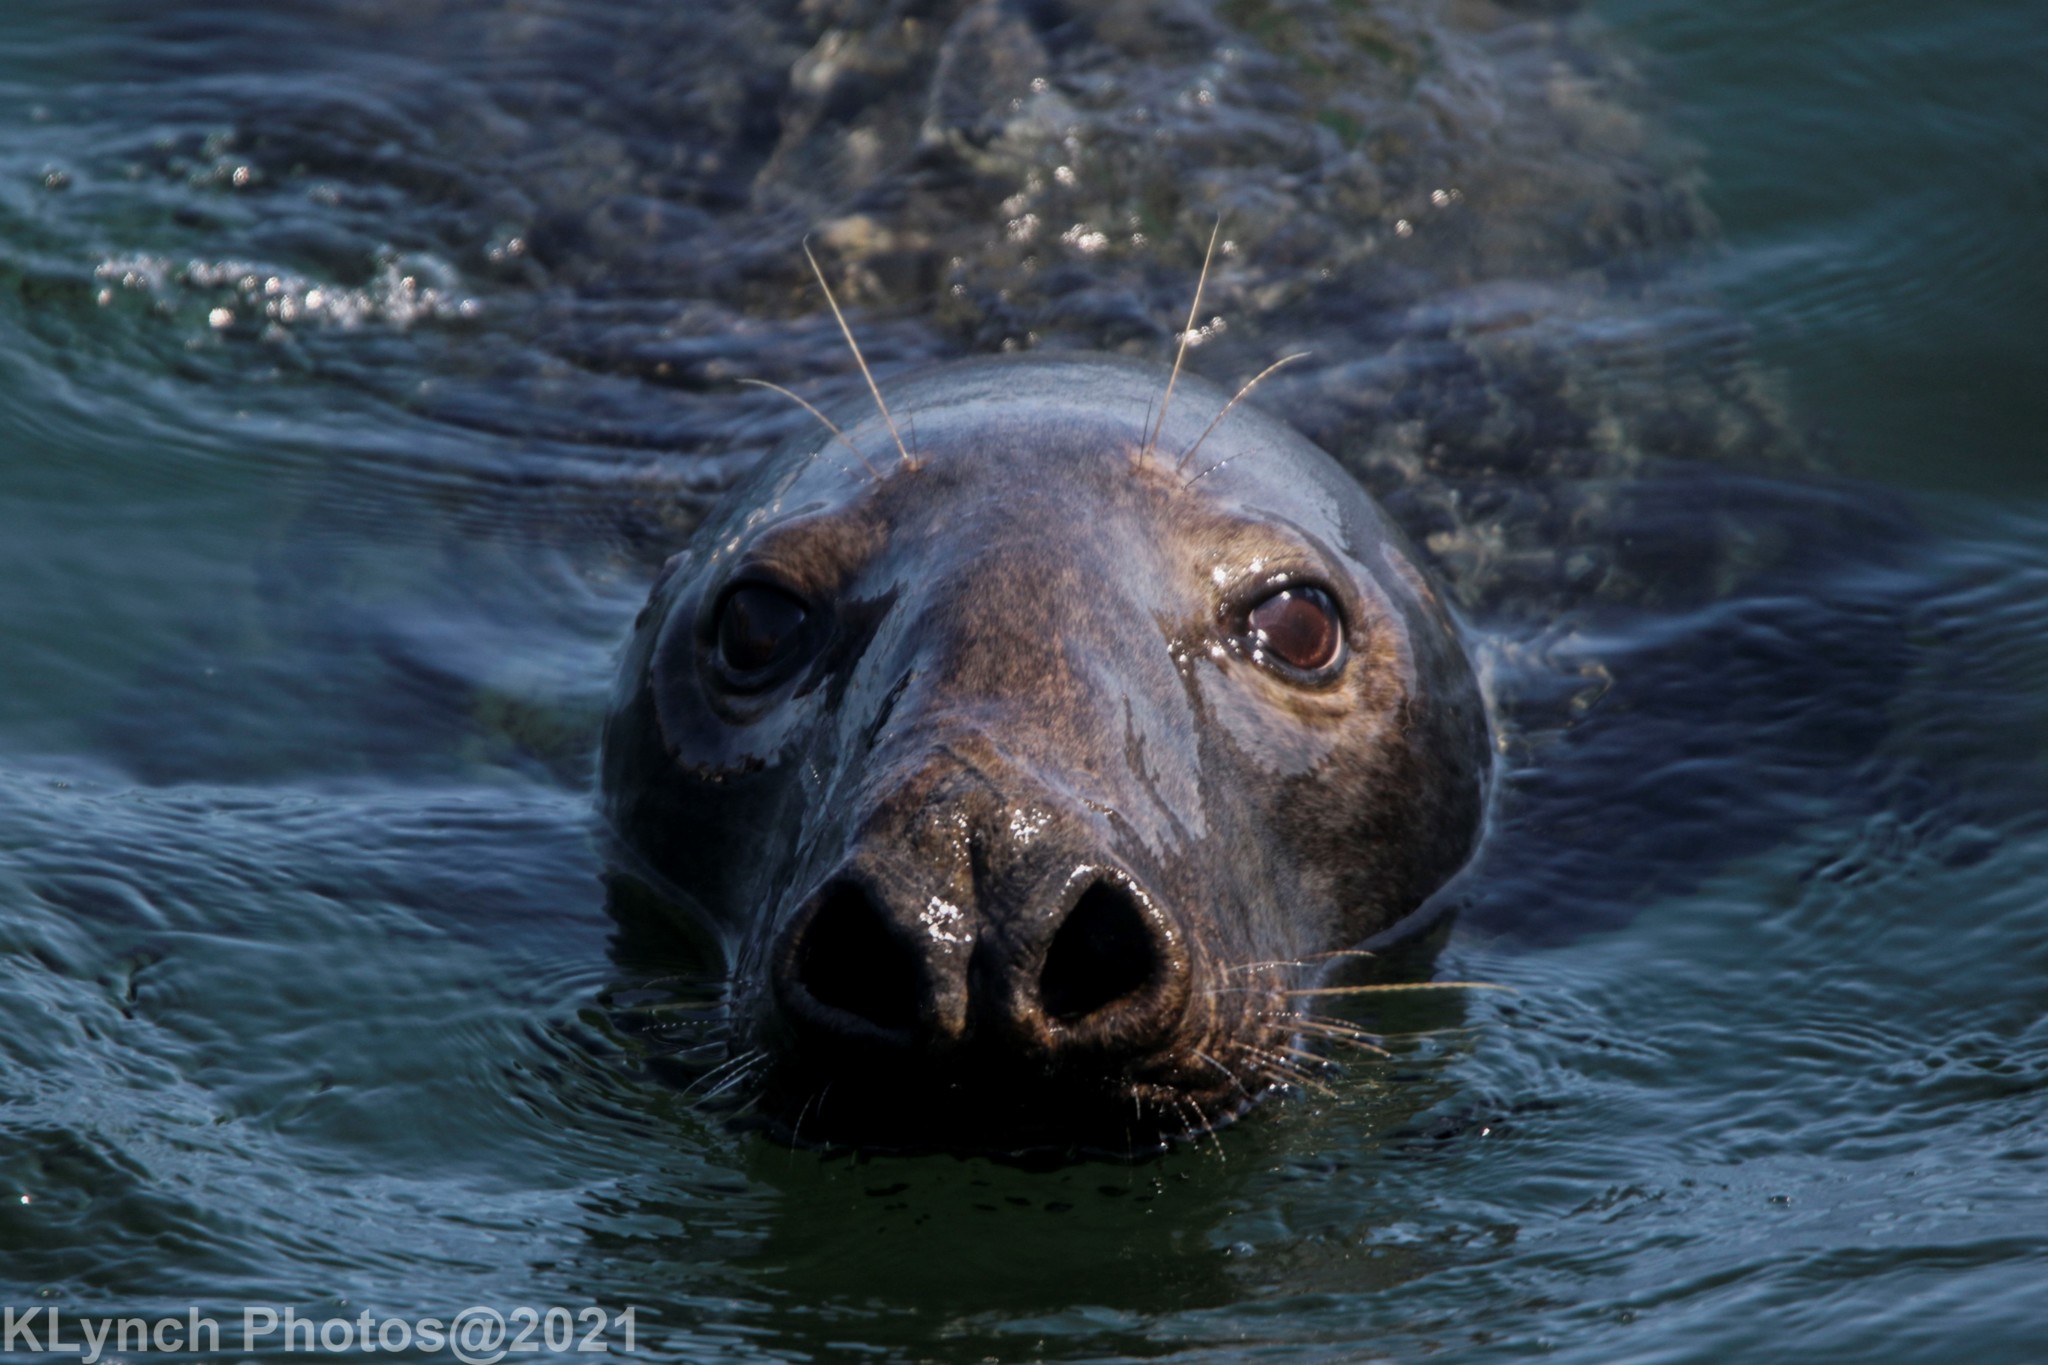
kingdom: Animalia
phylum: Chordata
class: Mammalia
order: Carnivora
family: Phocidae
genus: Halichoerus
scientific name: Halichoerus grypus
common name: Grey seal
